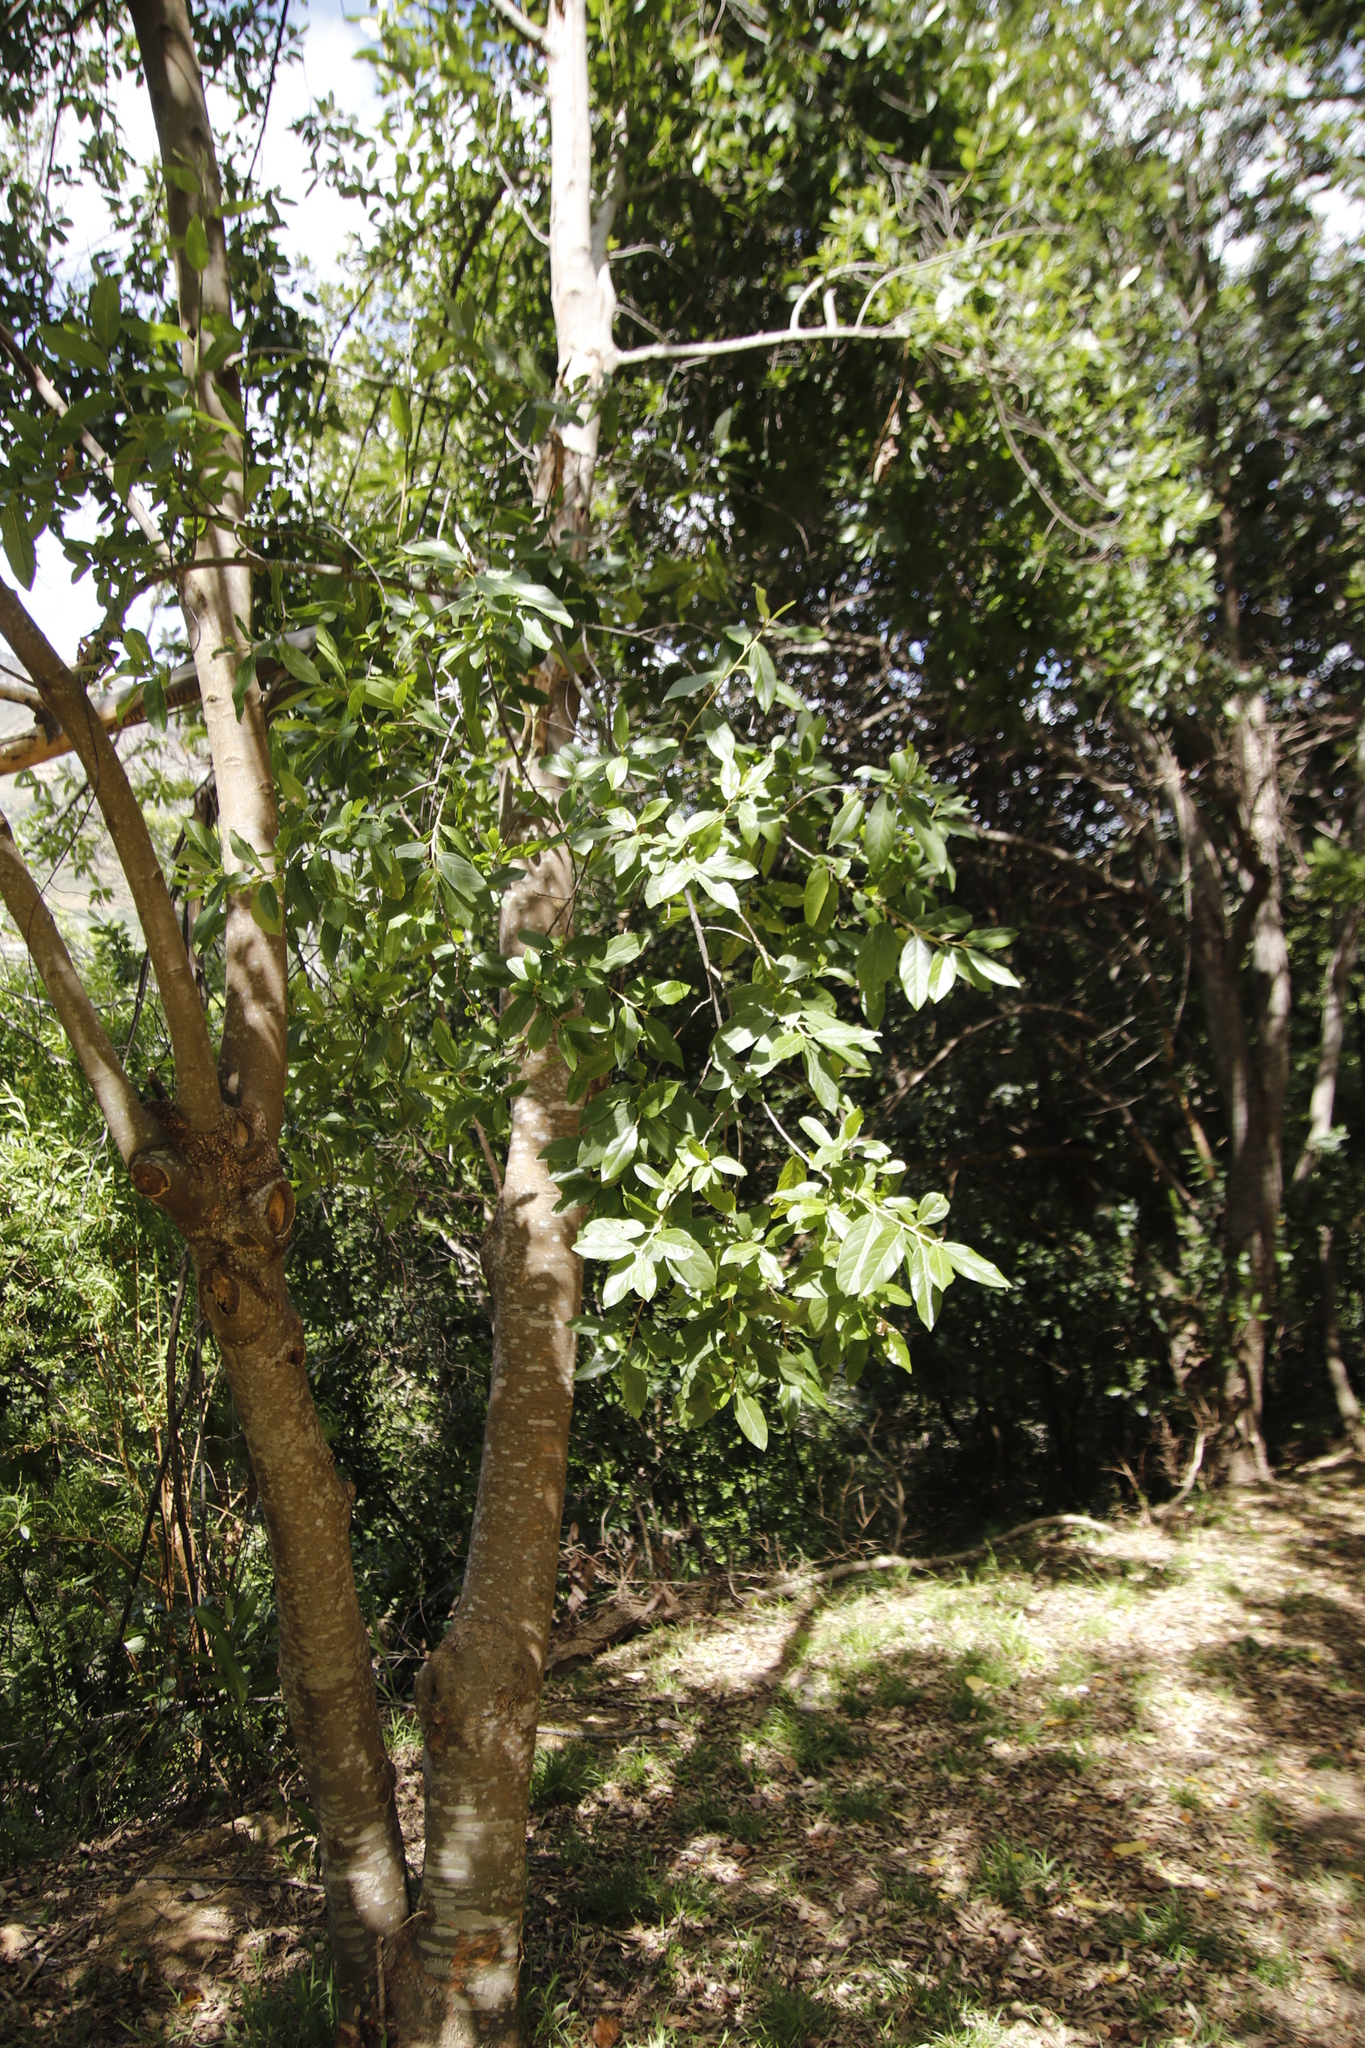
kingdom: Plantae
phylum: Tracheophyta
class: Magnoliopsida
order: Malpighiales
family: Achariaceae
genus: Kiggelaria
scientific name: Kiggelaria africana
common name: Wild peach
